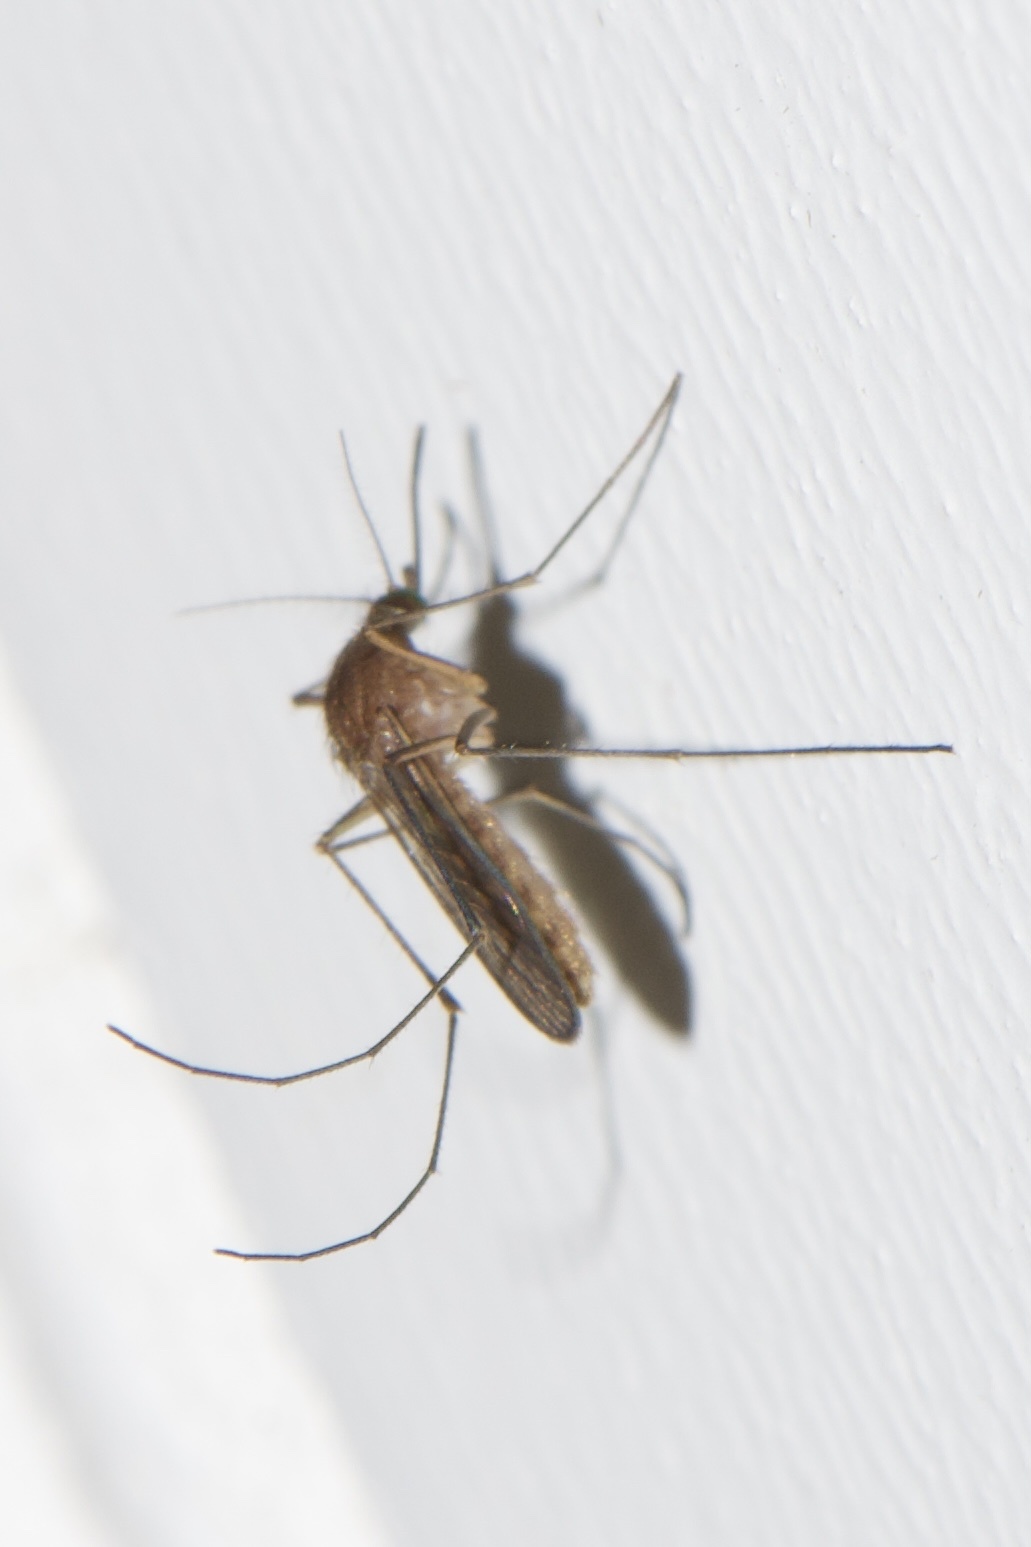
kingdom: Animalia
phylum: Arthropoda
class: Insecta
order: Diptera
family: Culicidae
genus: Culex
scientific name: Culex salinarius
